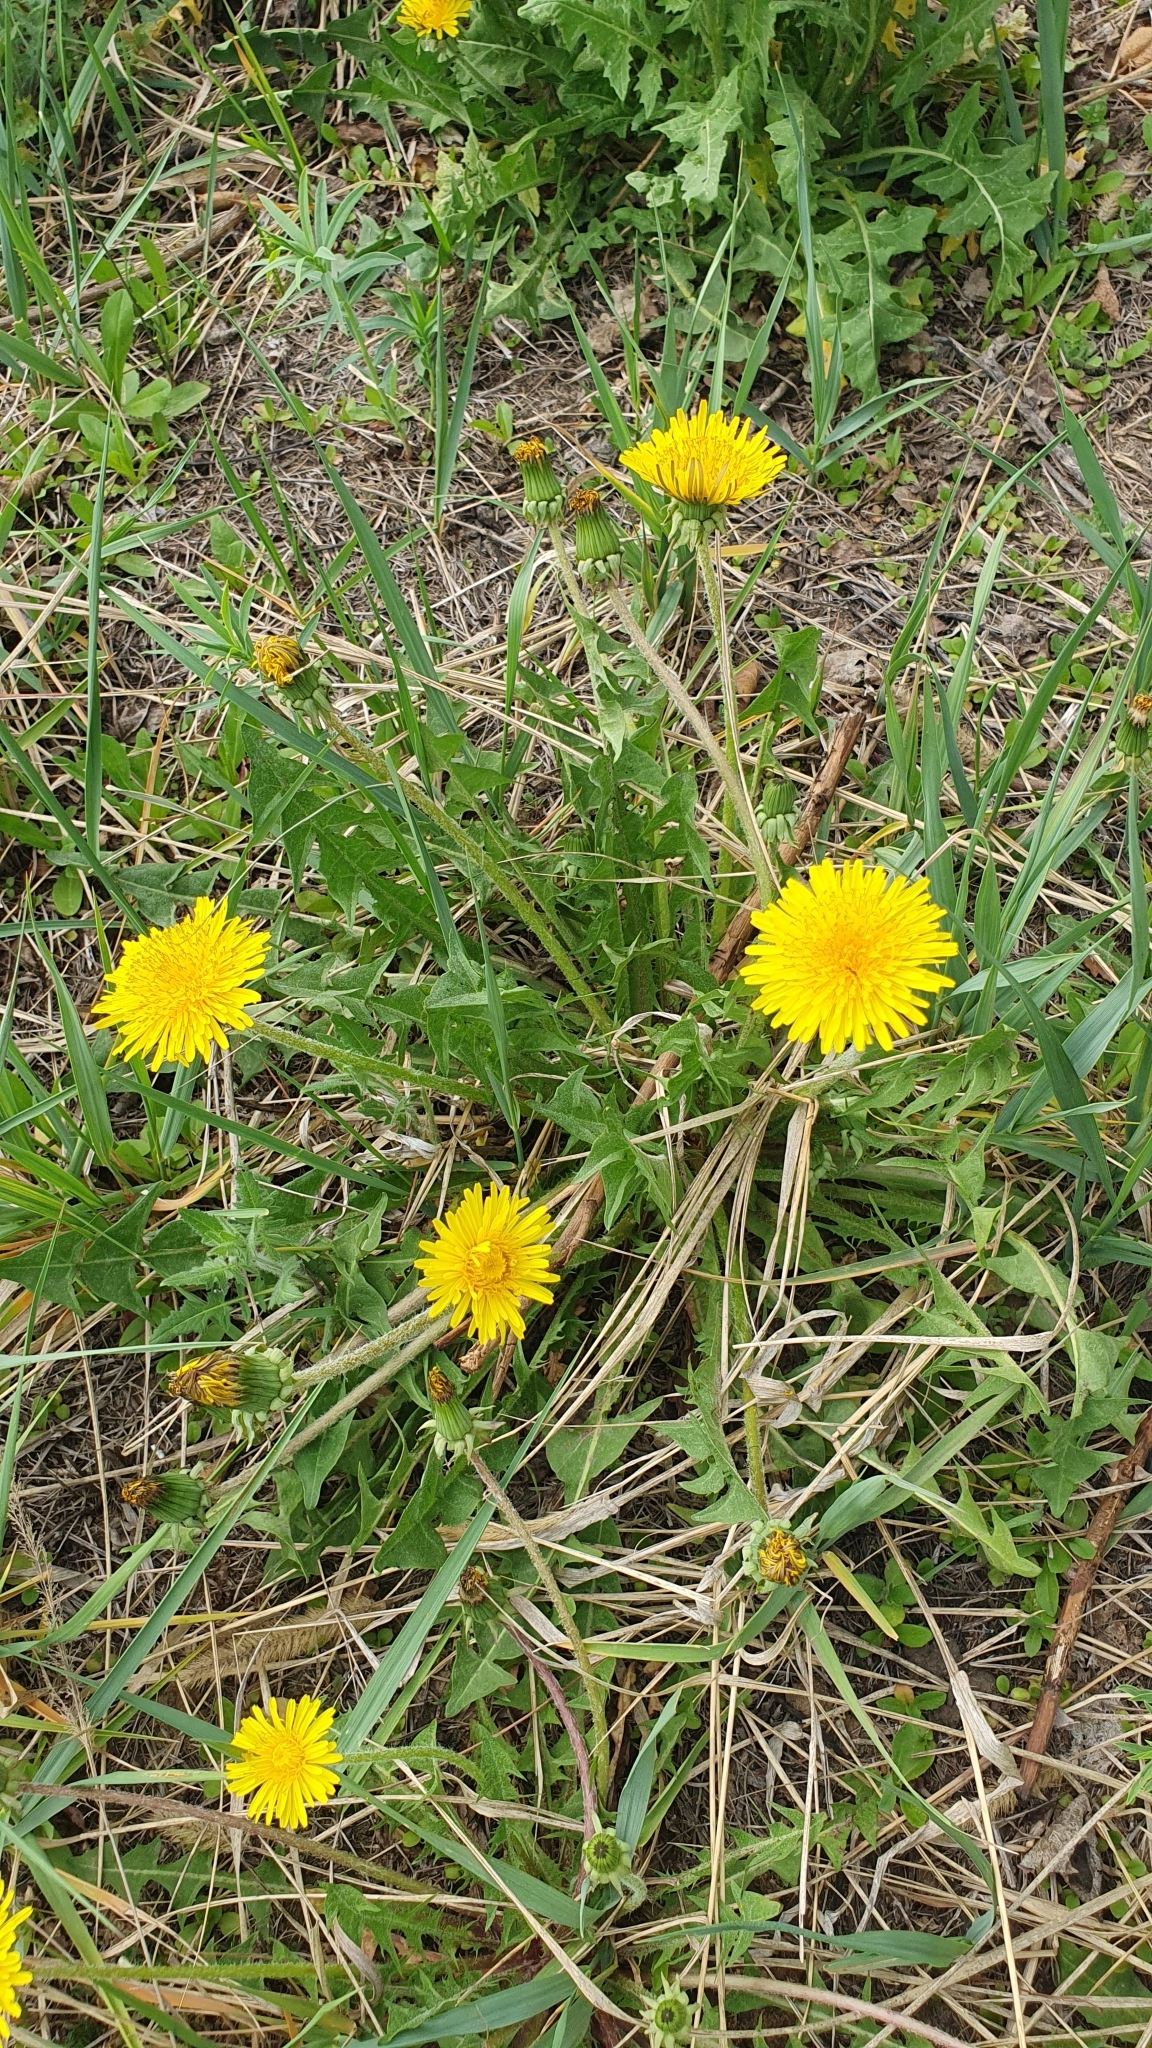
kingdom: Plantae
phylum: Tracheophyta
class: Magnoliopsida
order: Asterales
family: Asteraceae
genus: Taraxacum
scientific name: Taraxacum officinale
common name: Common dandelion
